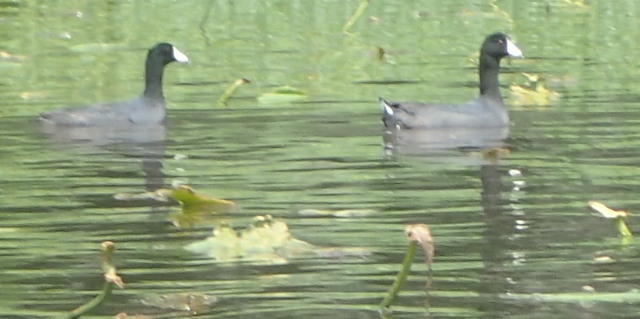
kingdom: Animalia
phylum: Chordata
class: Aves
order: Gruiformes
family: Rallidae
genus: Fulica
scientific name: Fulica americana
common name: American coot
